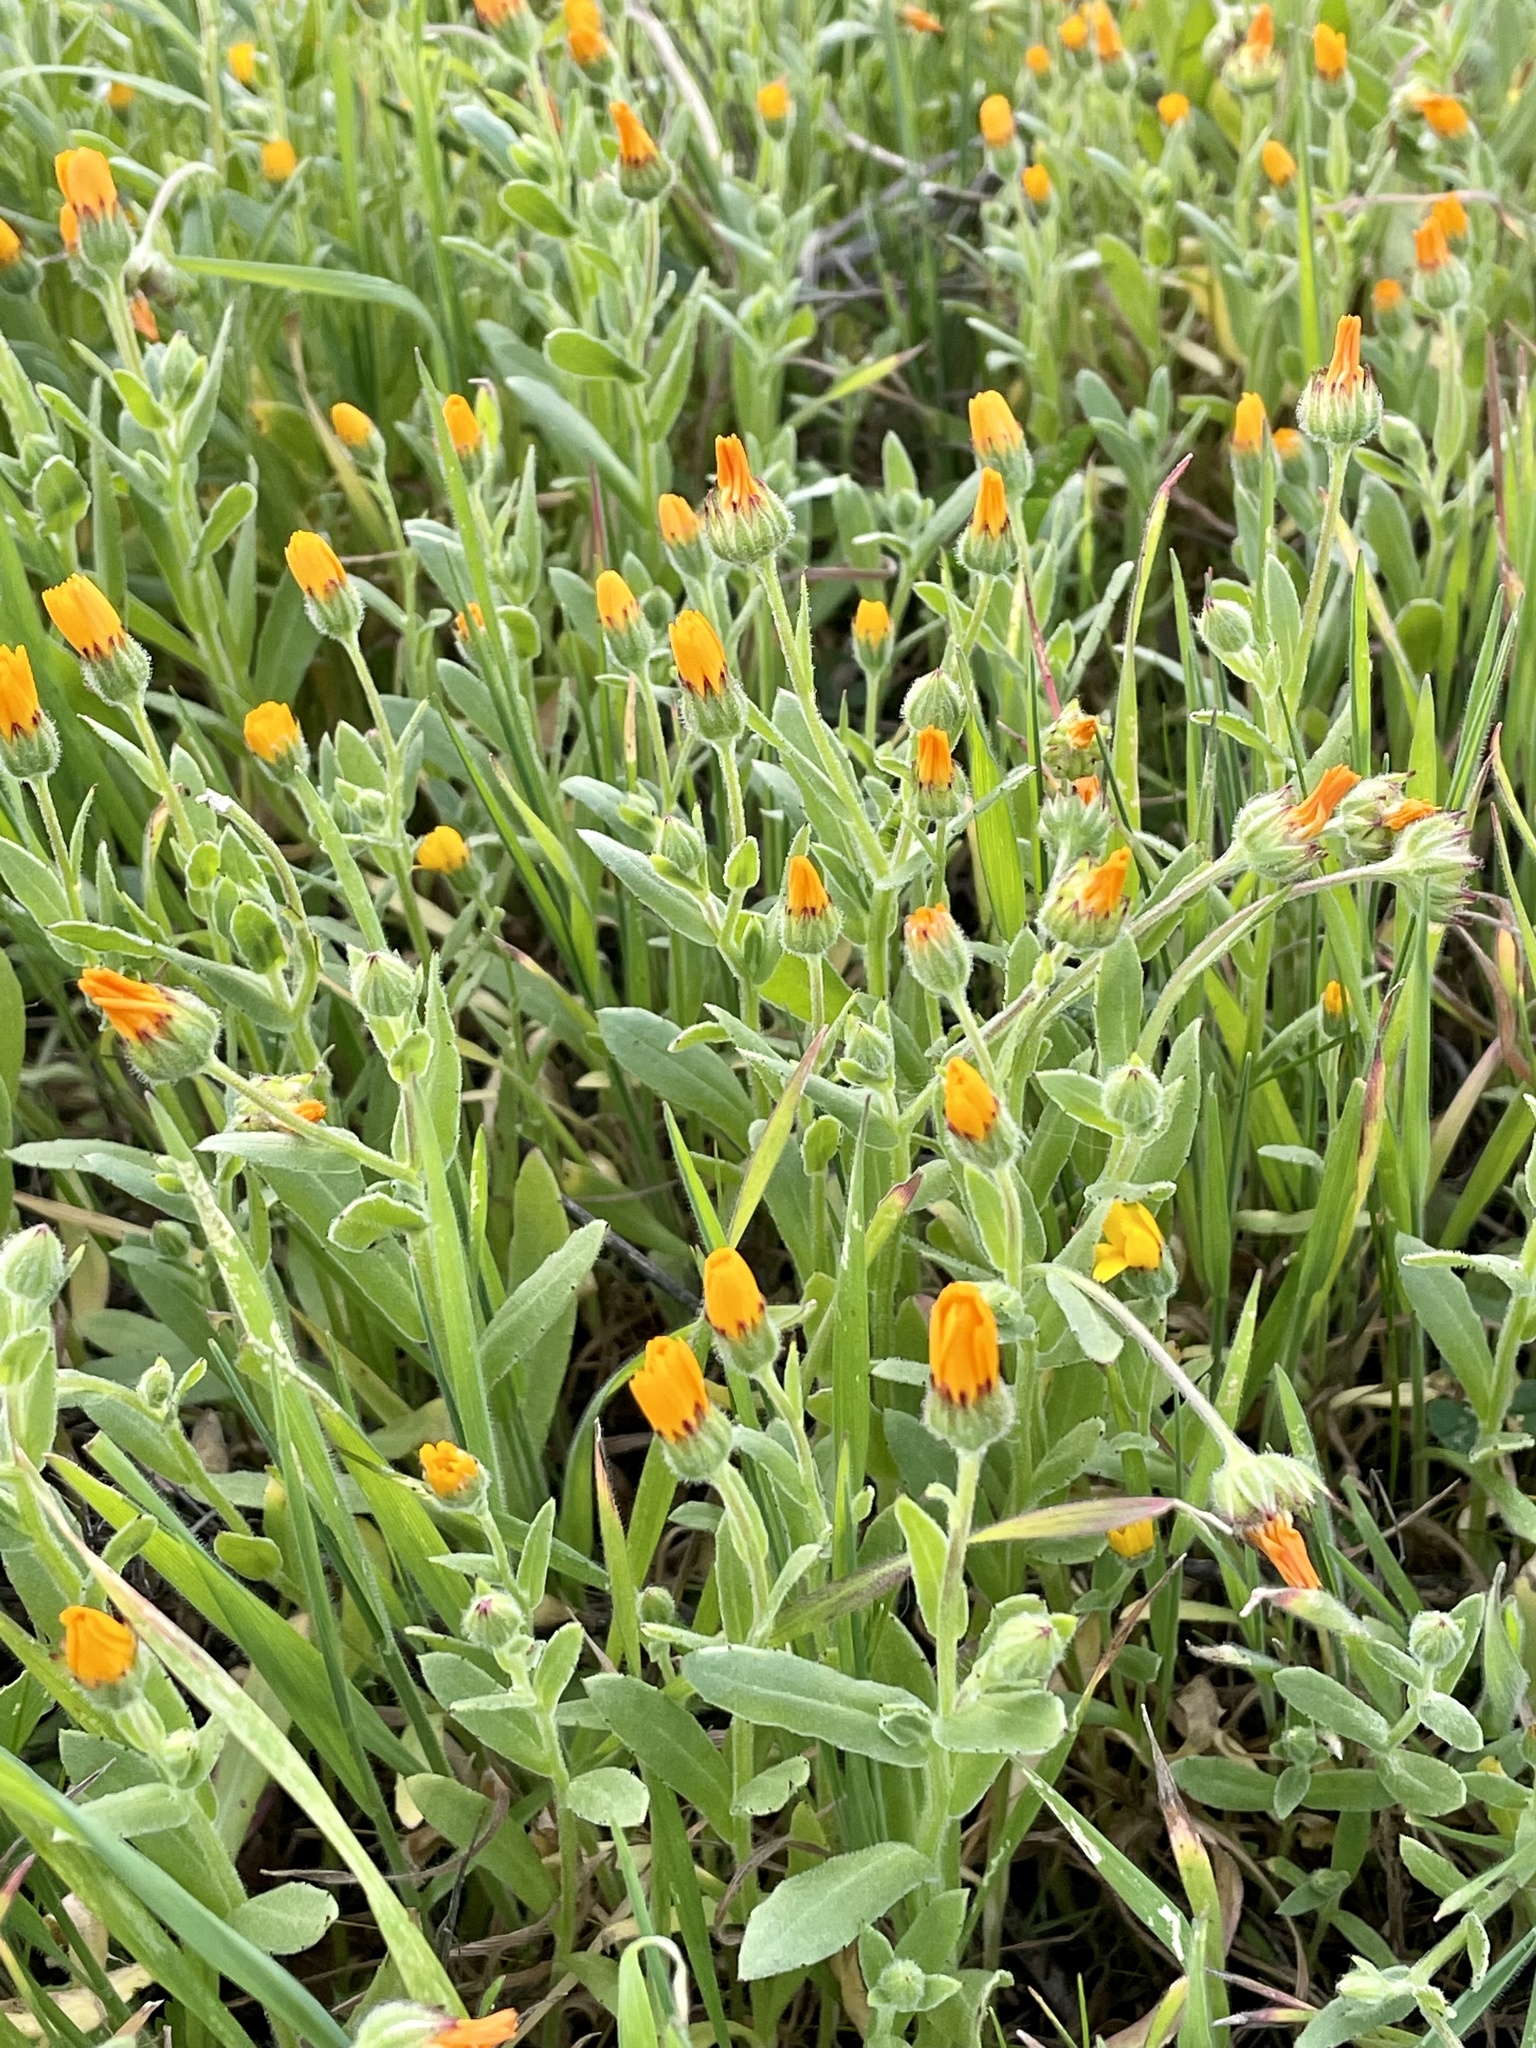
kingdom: Plantae
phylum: Tracheophyta
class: Magnoliopsida
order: Asterales
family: Asteraceae
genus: Calendula
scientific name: Calendula arvensis
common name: Field marigold
